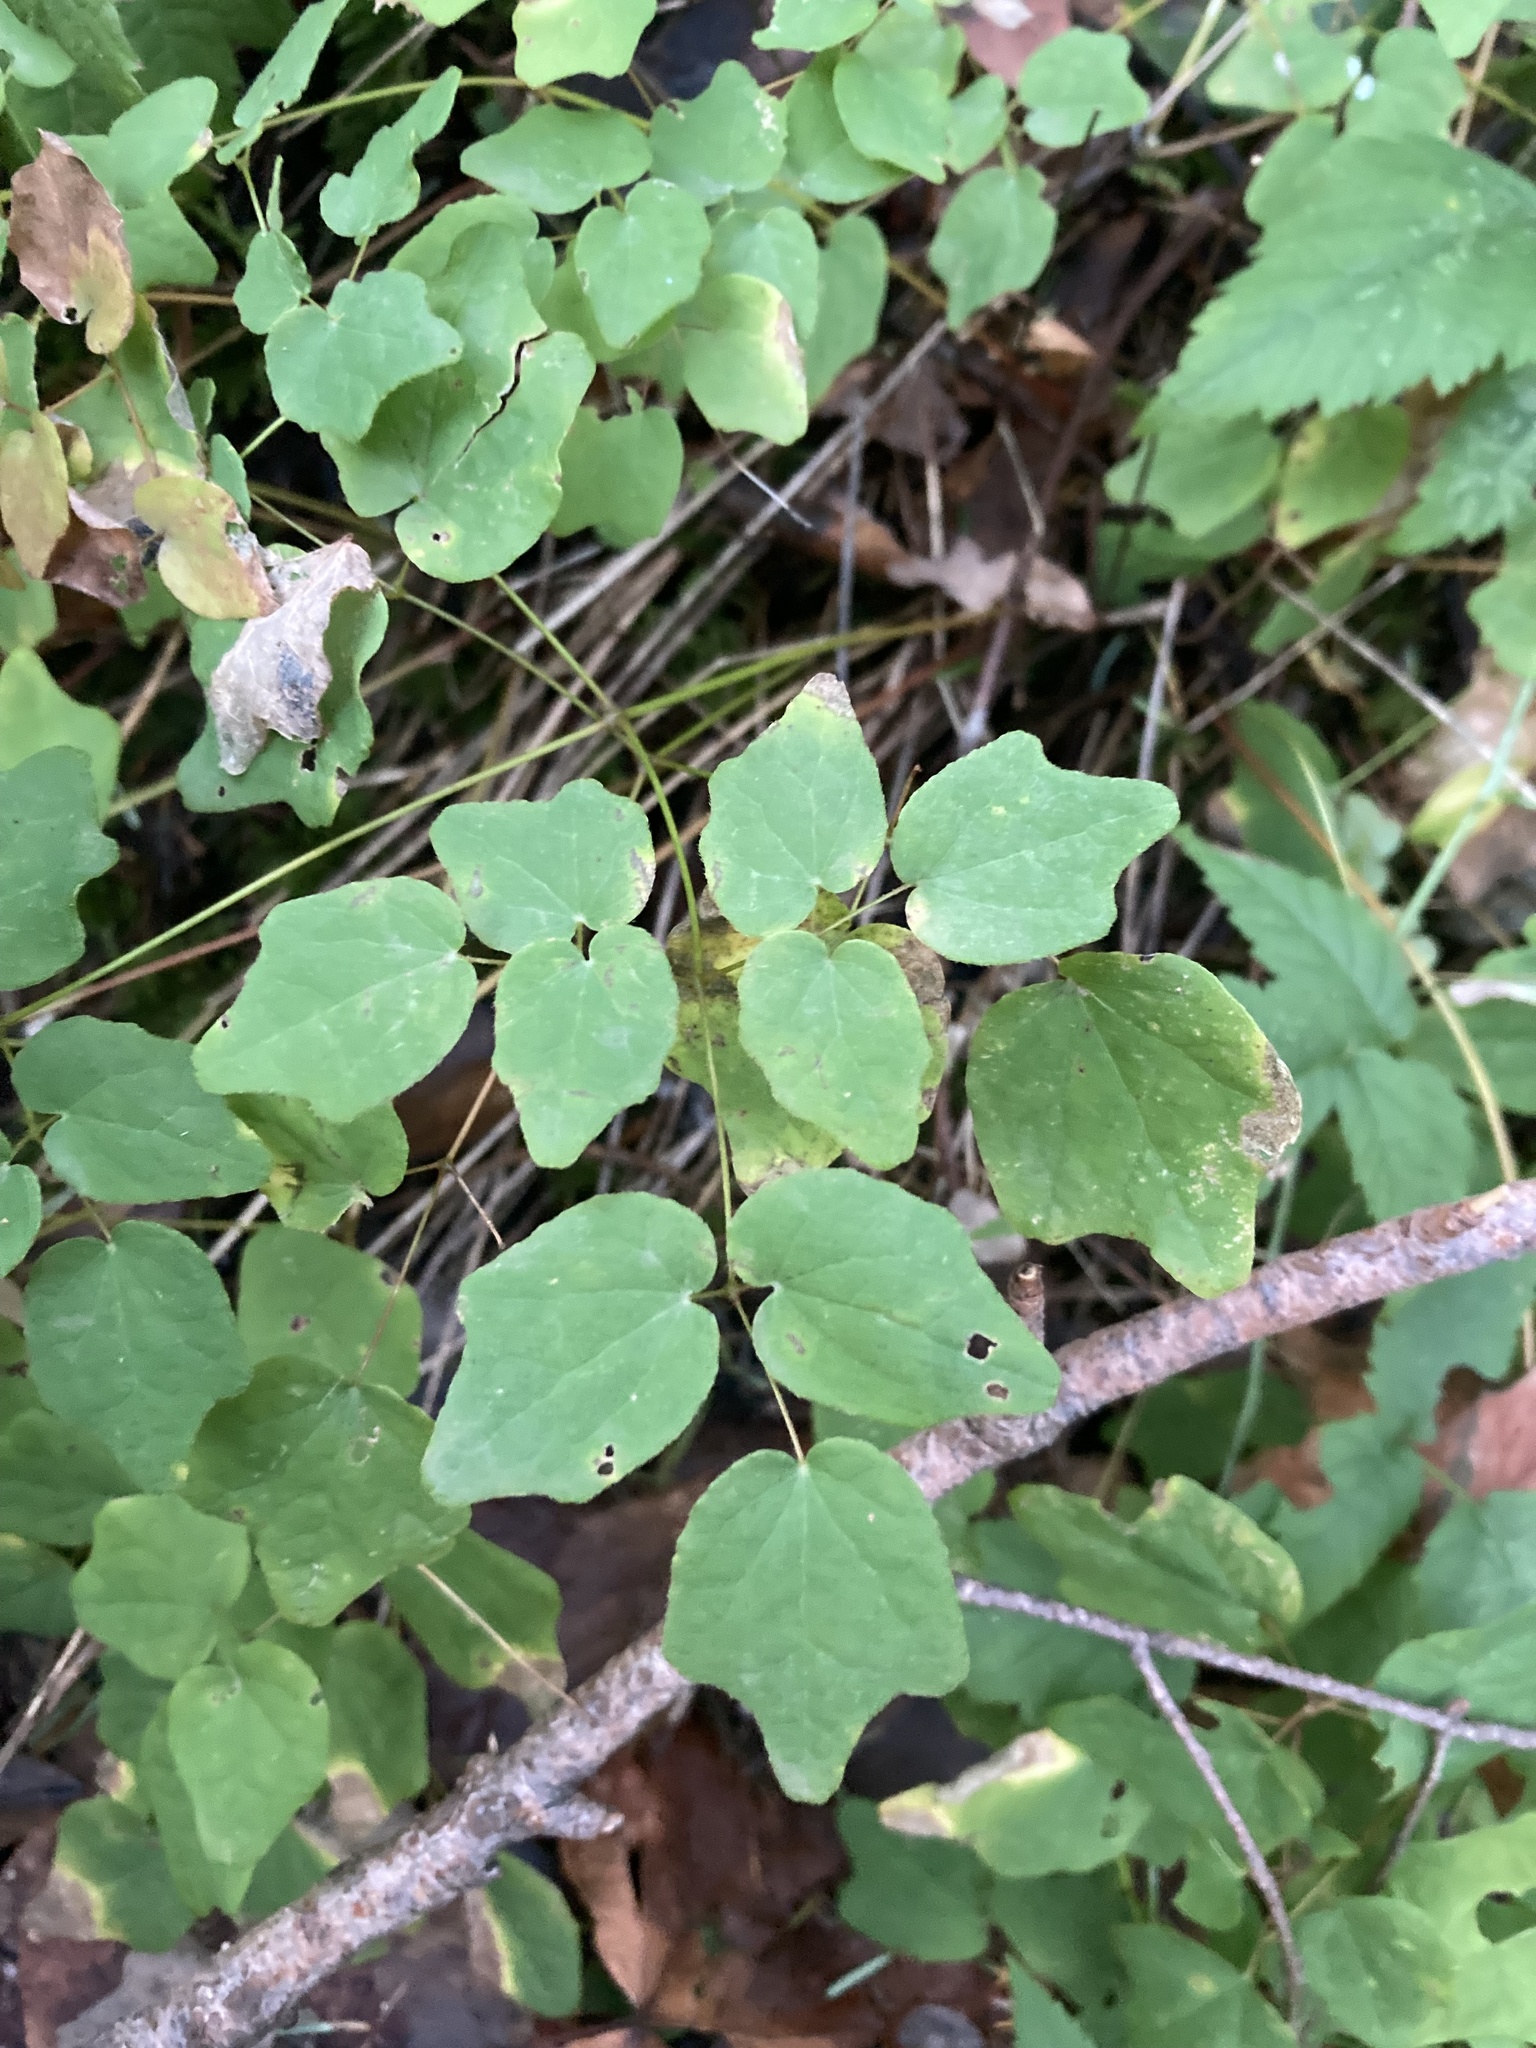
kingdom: Plantae
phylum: Tracheophyta
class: Magnoliopsida
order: Ranunculales
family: Berberidaceae
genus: Vancouveria
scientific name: Vancouveria hexandra
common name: Northern inside-out-flower
